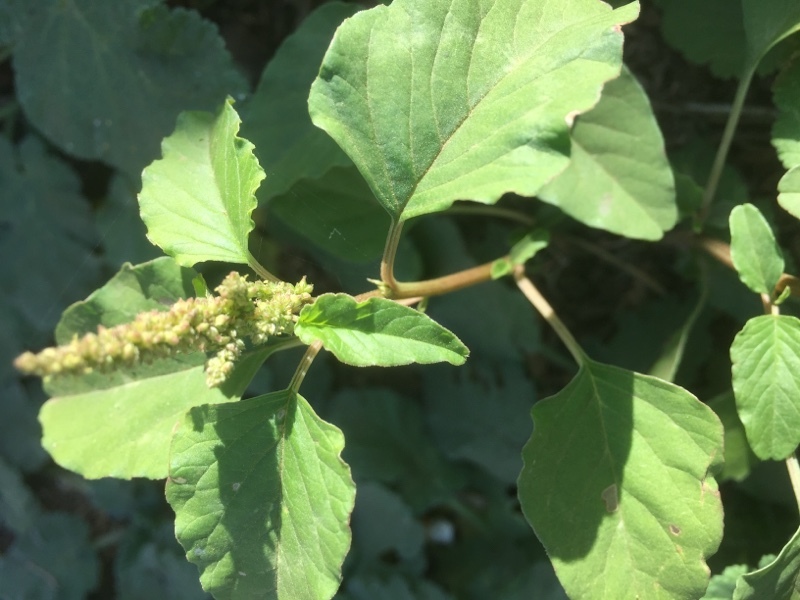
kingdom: Plantae
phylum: Tracheophyta
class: Magnoliopsida
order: Caryophyllales
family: Amaranthaceae
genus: Amaranthus
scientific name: Amaranthus viridis
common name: Slender amaranth
